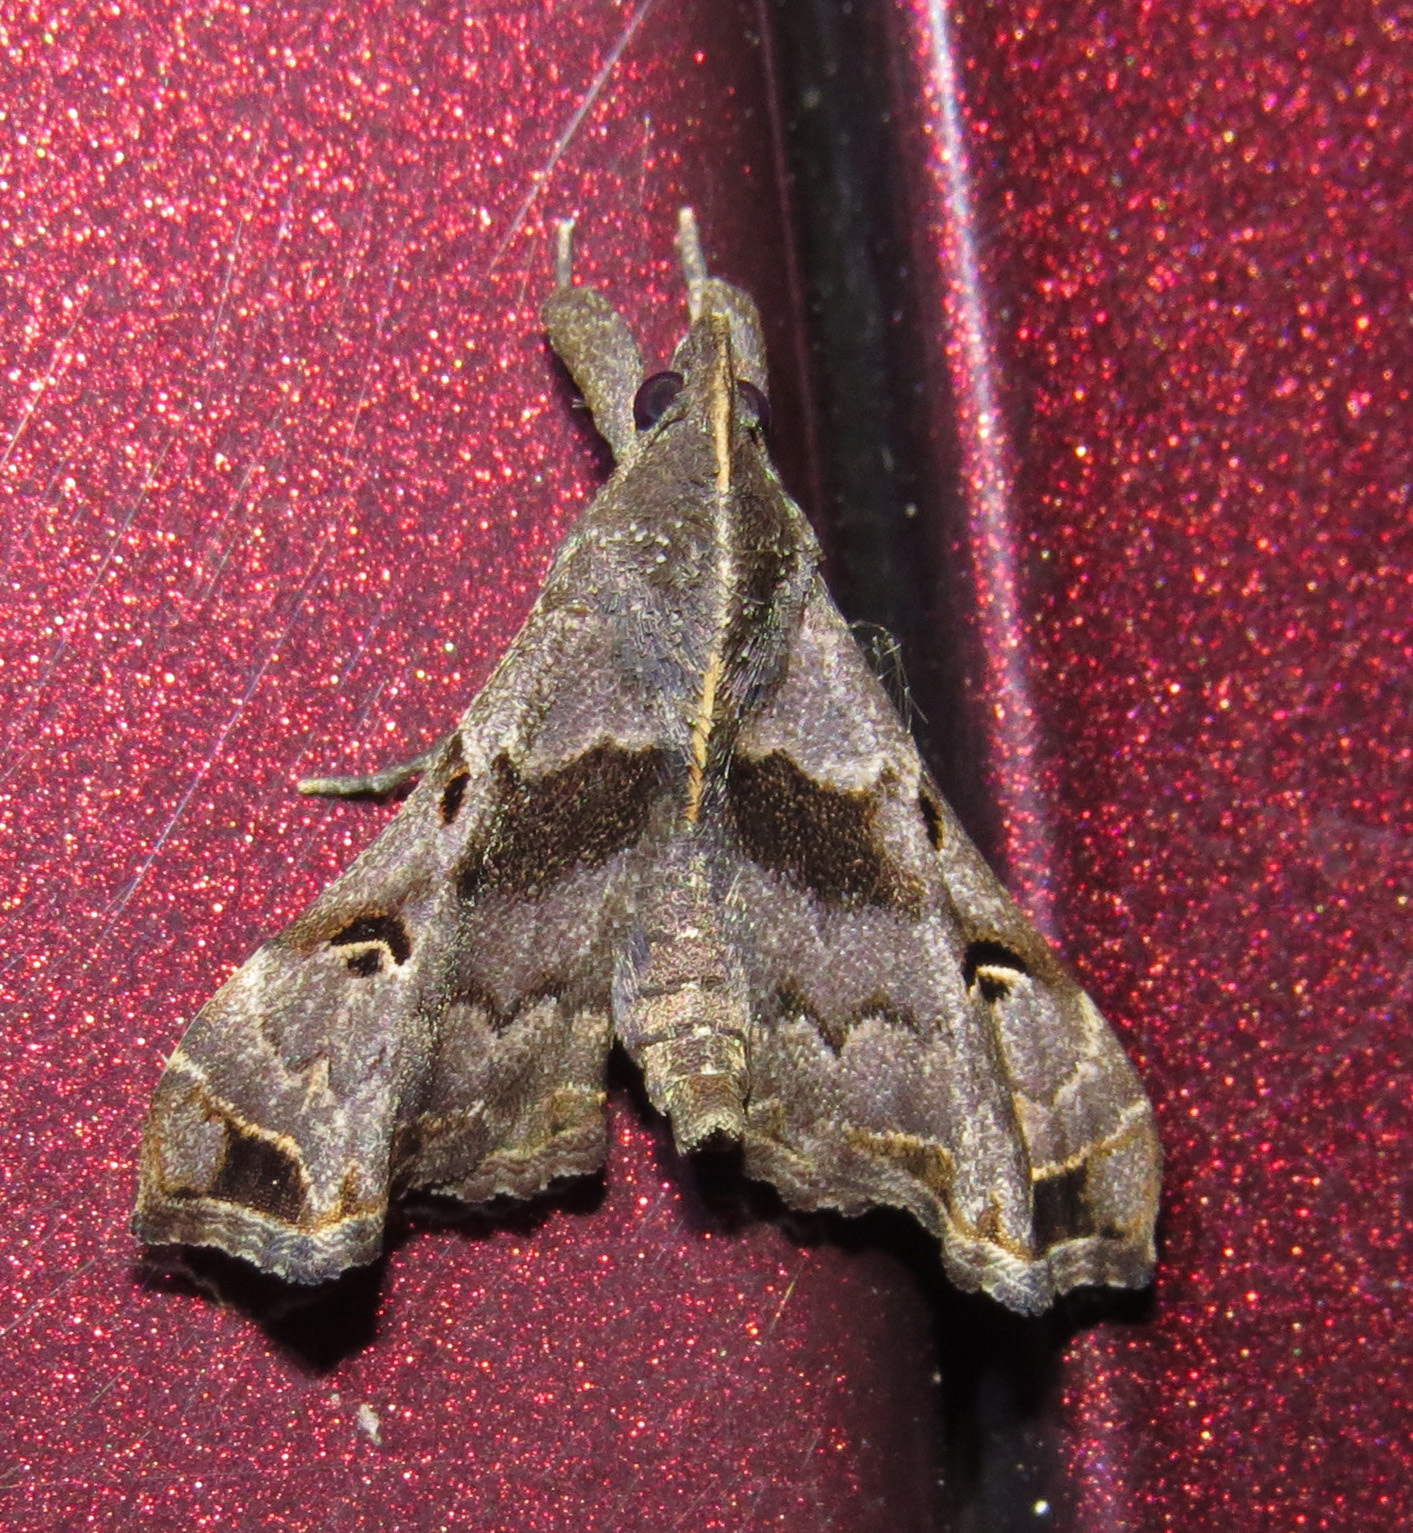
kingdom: Animalia
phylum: Arthropoda
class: Insecta
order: Lepidoptera
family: Erebidae
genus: Palthis
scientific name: Palthis asopialis
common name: Faint-spotted palthis moth
